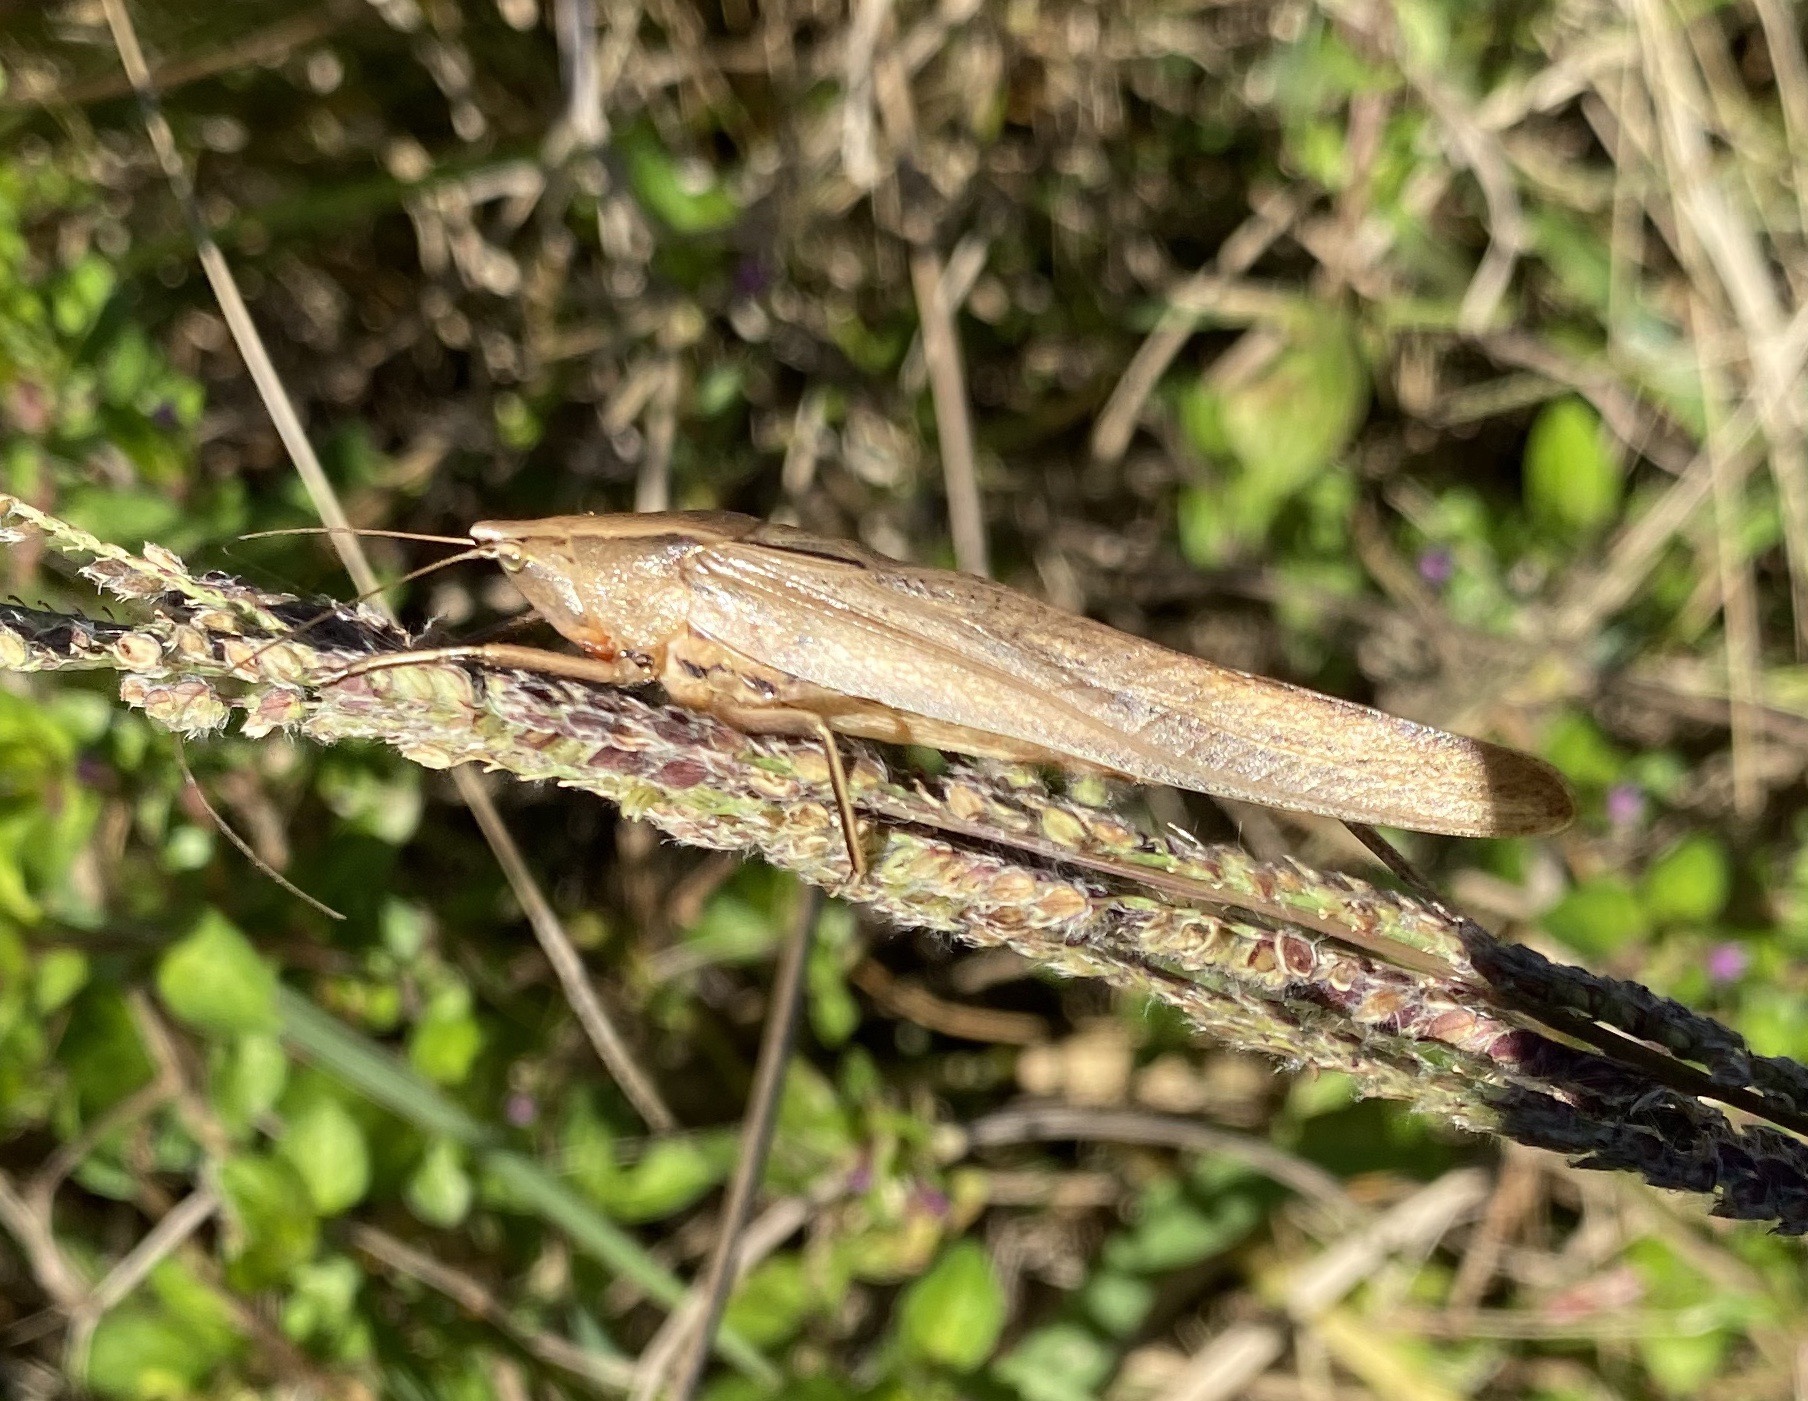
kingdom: Animalia
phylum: Arthropoda
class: Insecta
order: Orthoptera
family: Tettigoniidae
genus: Neoconocephalus
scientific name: Neoconocephalus triops
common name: Broad-tipped conehead
